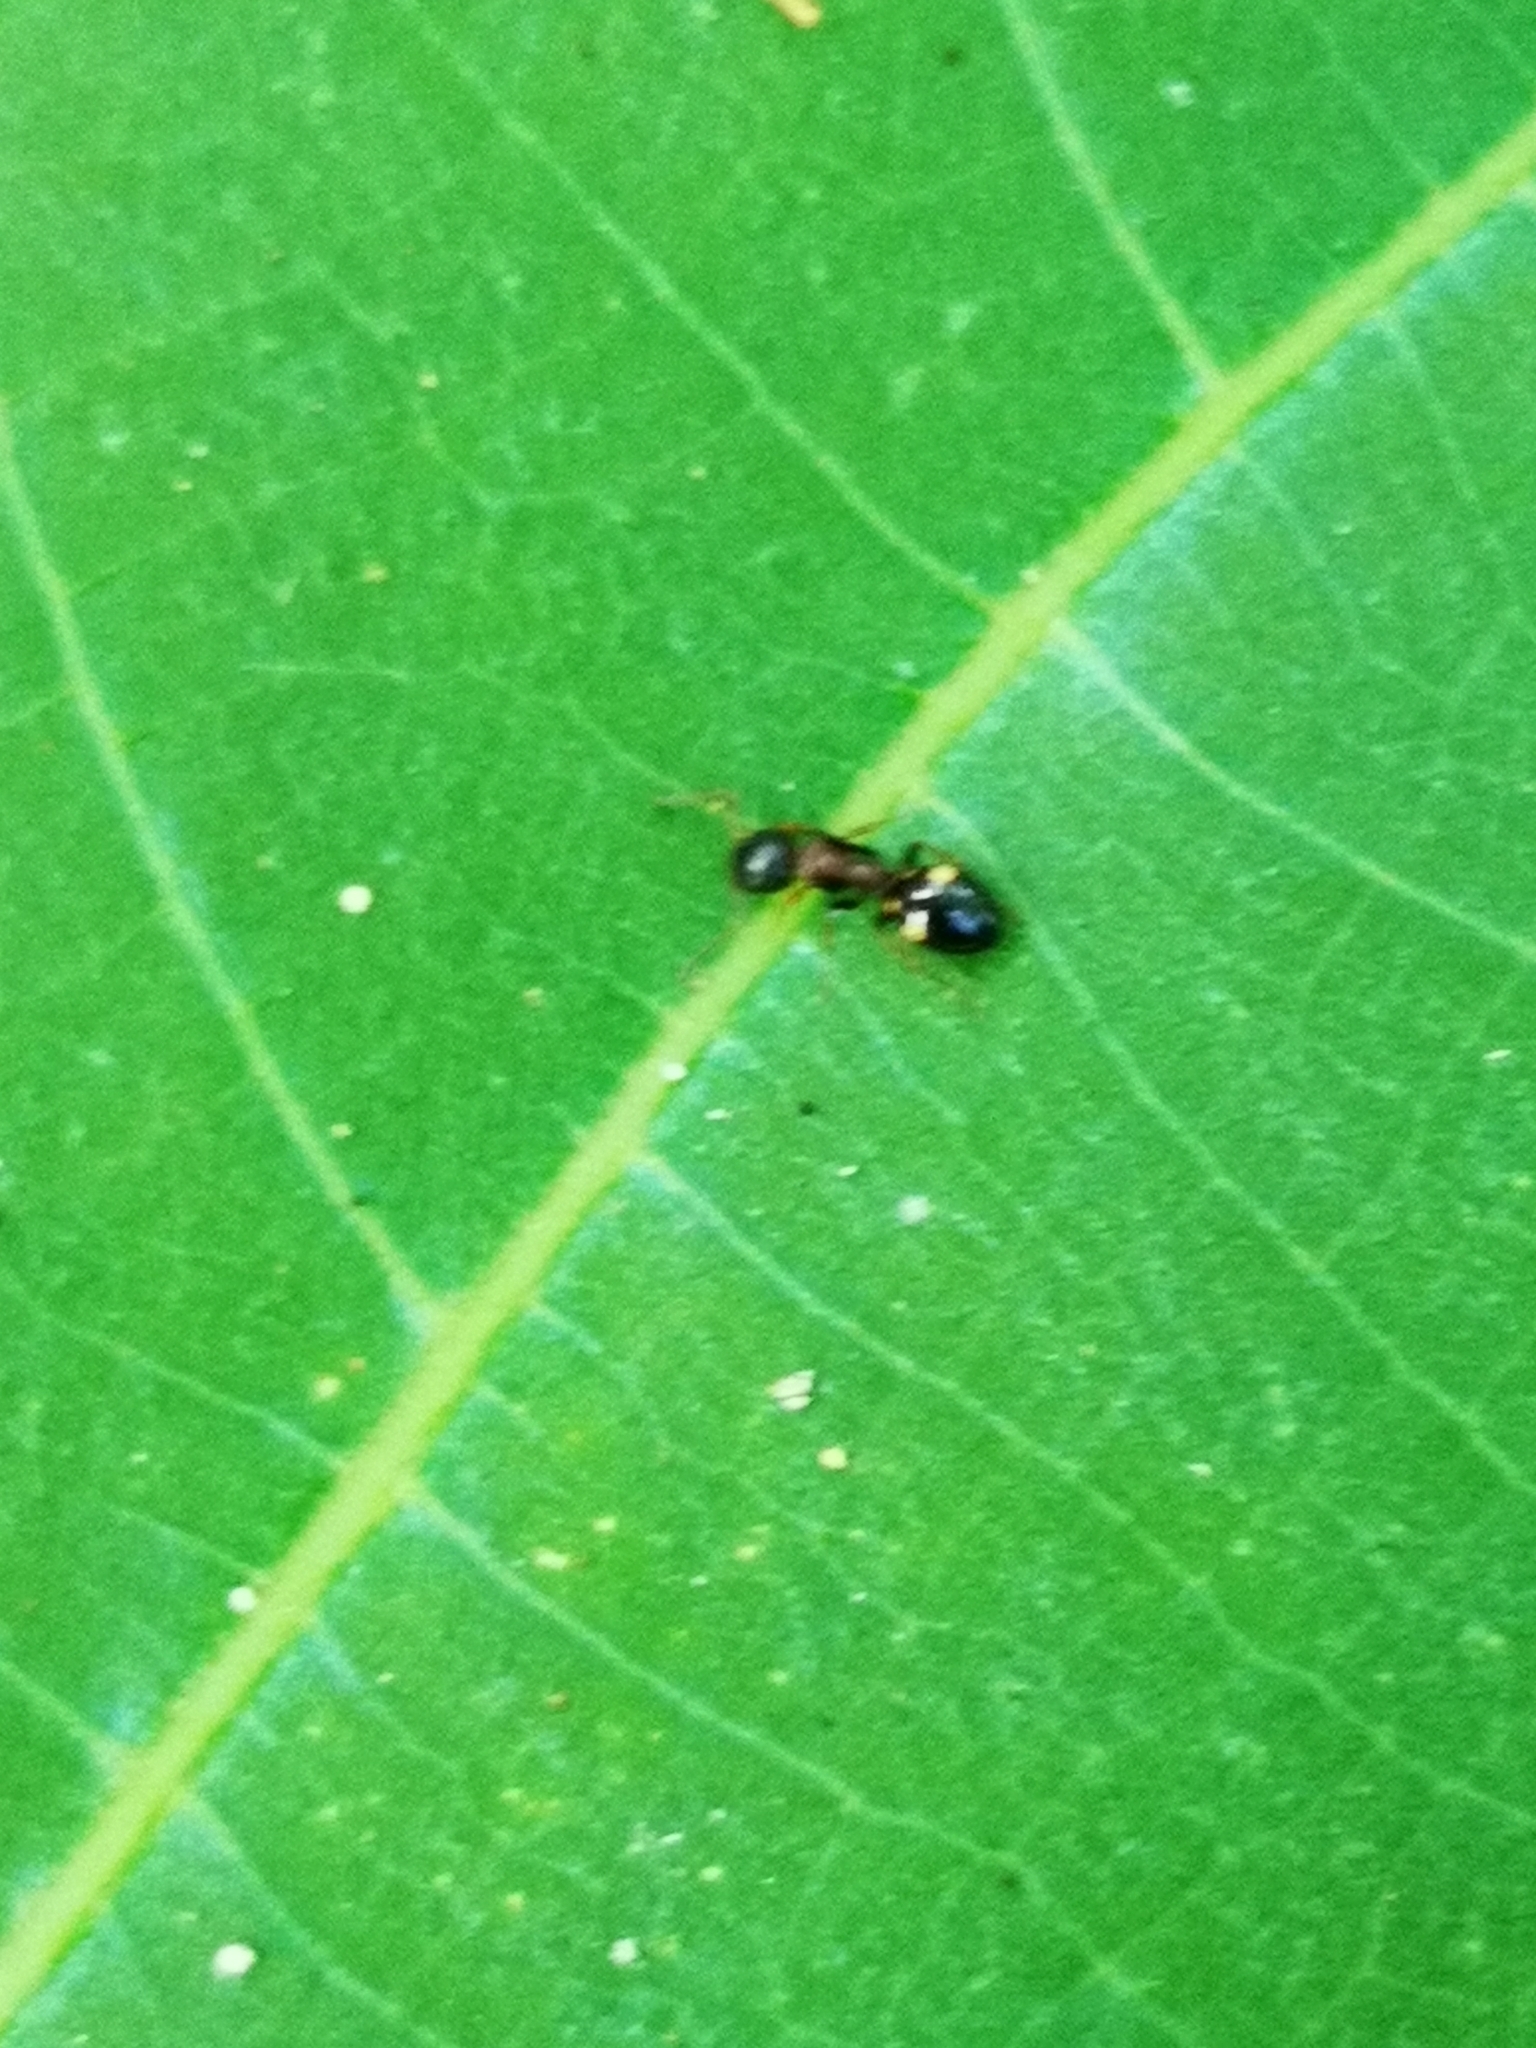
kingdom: Animalia
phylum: Arthropoda
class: Insecta
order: Hymenoptera
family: Formicidae
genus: Dolichoderus
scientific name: Dolichoderus quadripunctatus
